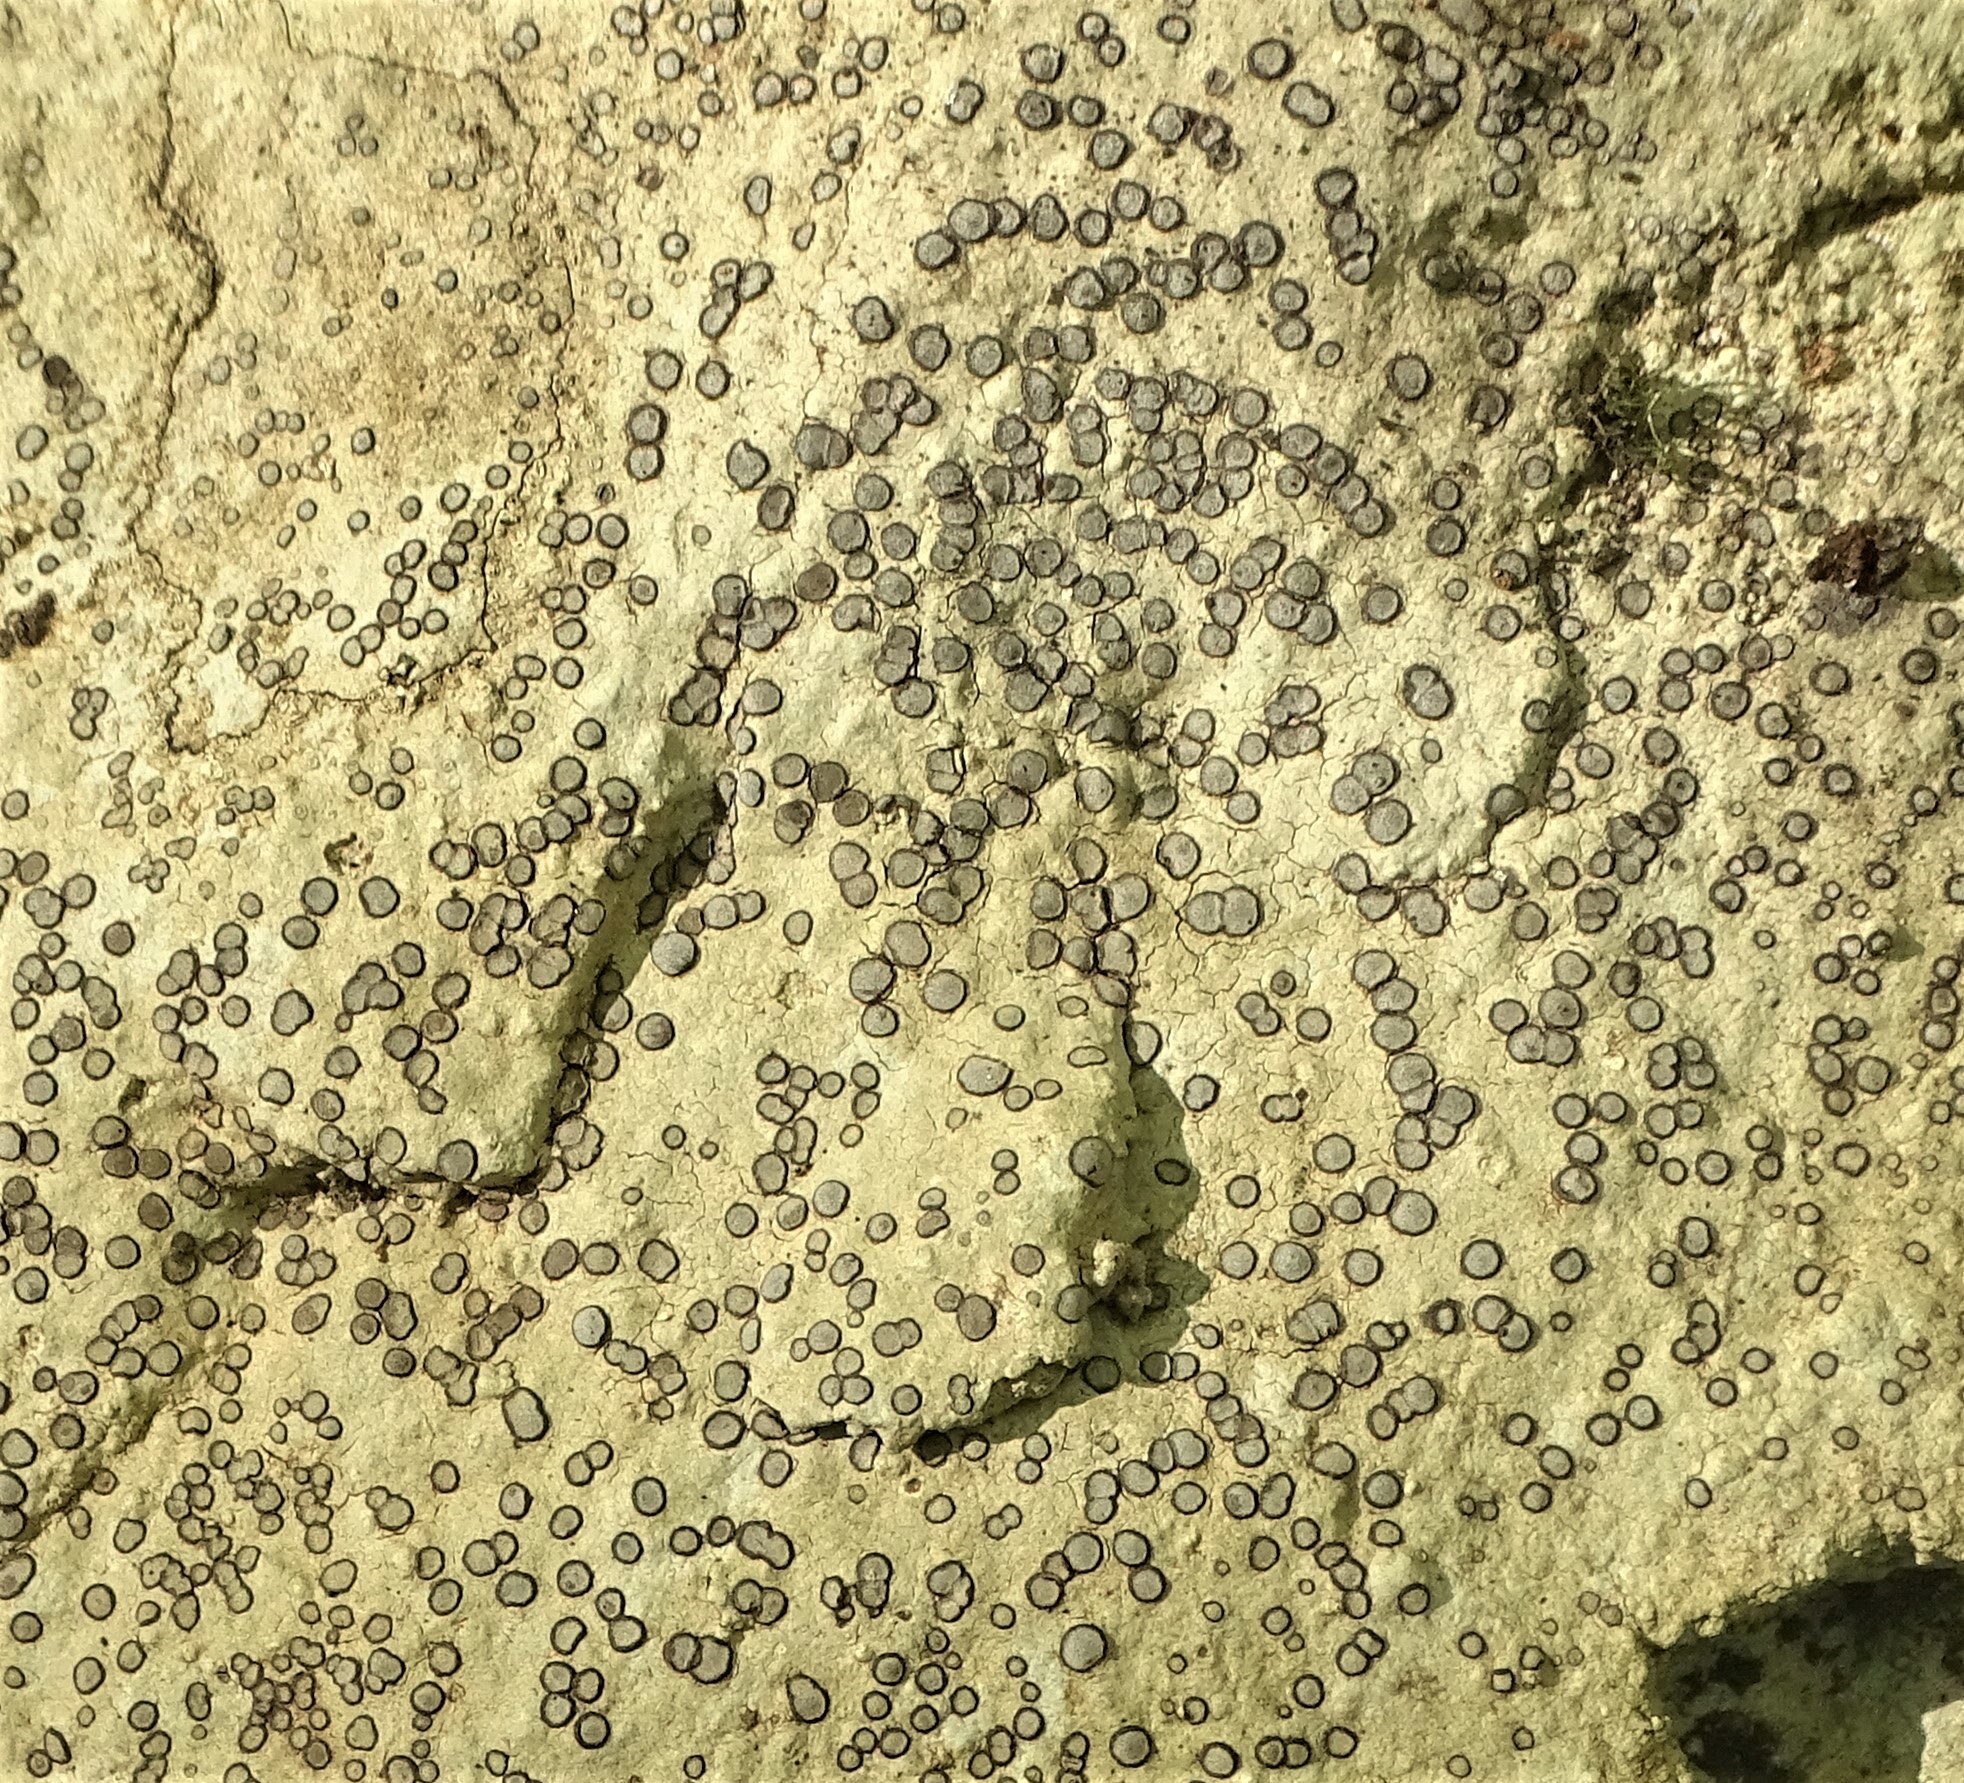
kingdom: Fungi
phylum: Ascomycota
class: Lecanoromycetes
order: Lecideales
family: Lecideaceae
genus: Porpidia
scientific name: Porpidia albocaerulescens
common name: Smokey-eyed boulder lichen
